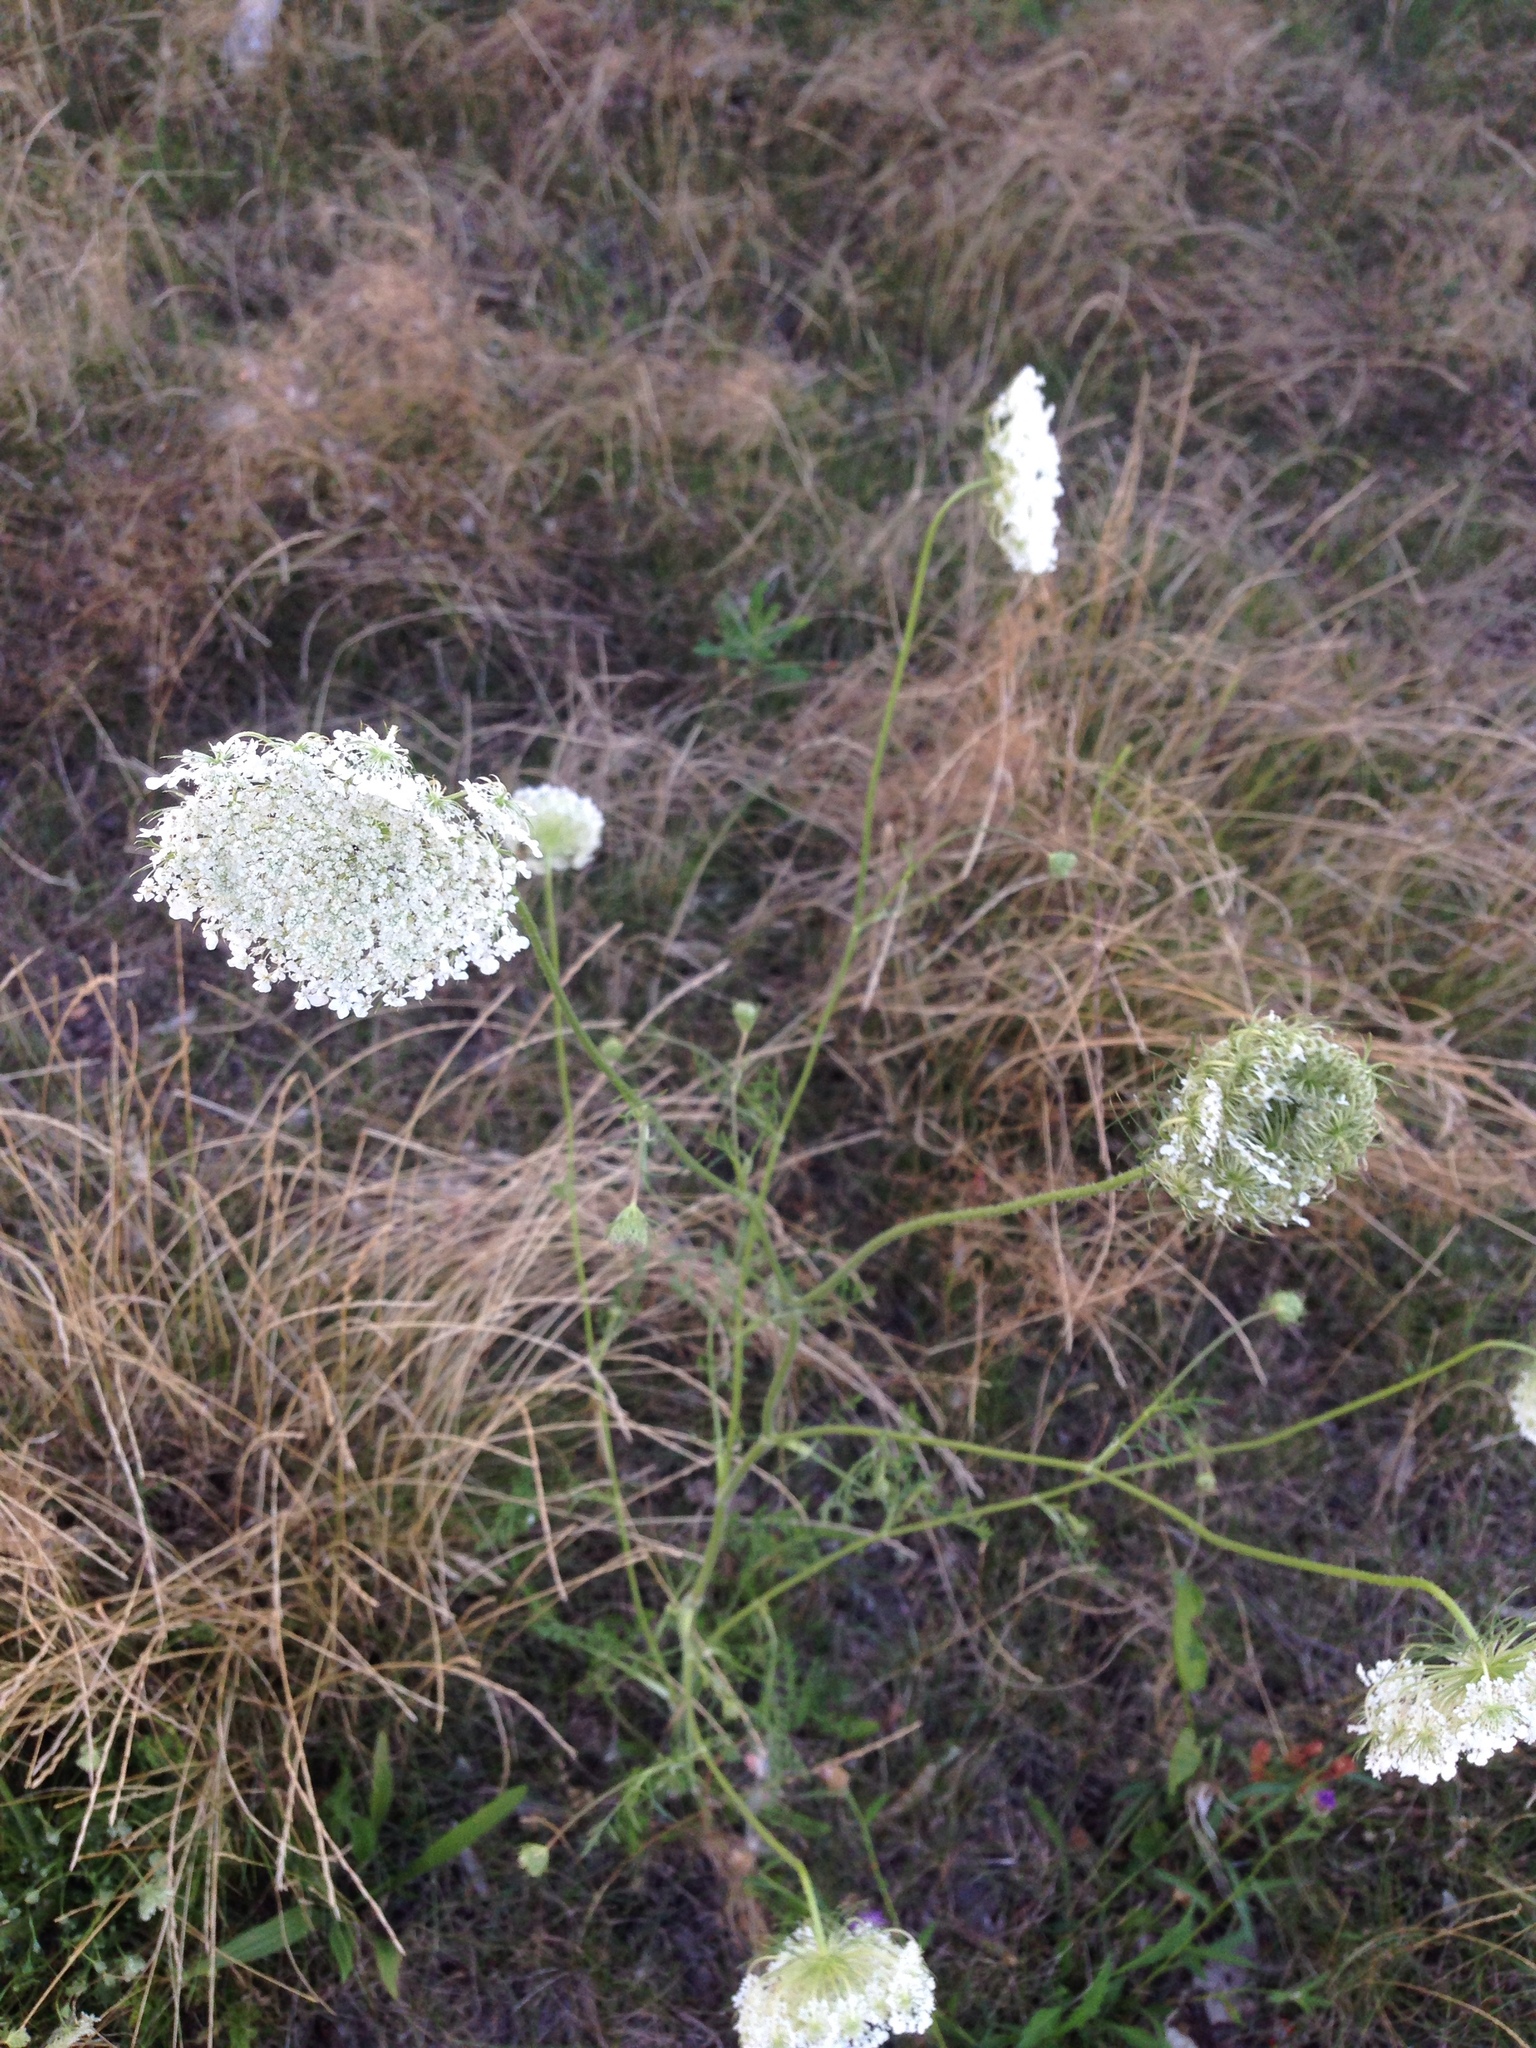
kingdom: Plantae
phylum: Tracheophyta
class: Magnoliopsida
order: Apiales
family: Apiaceae
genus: Daucus
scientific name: Daucus carota
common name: Wild carrot
